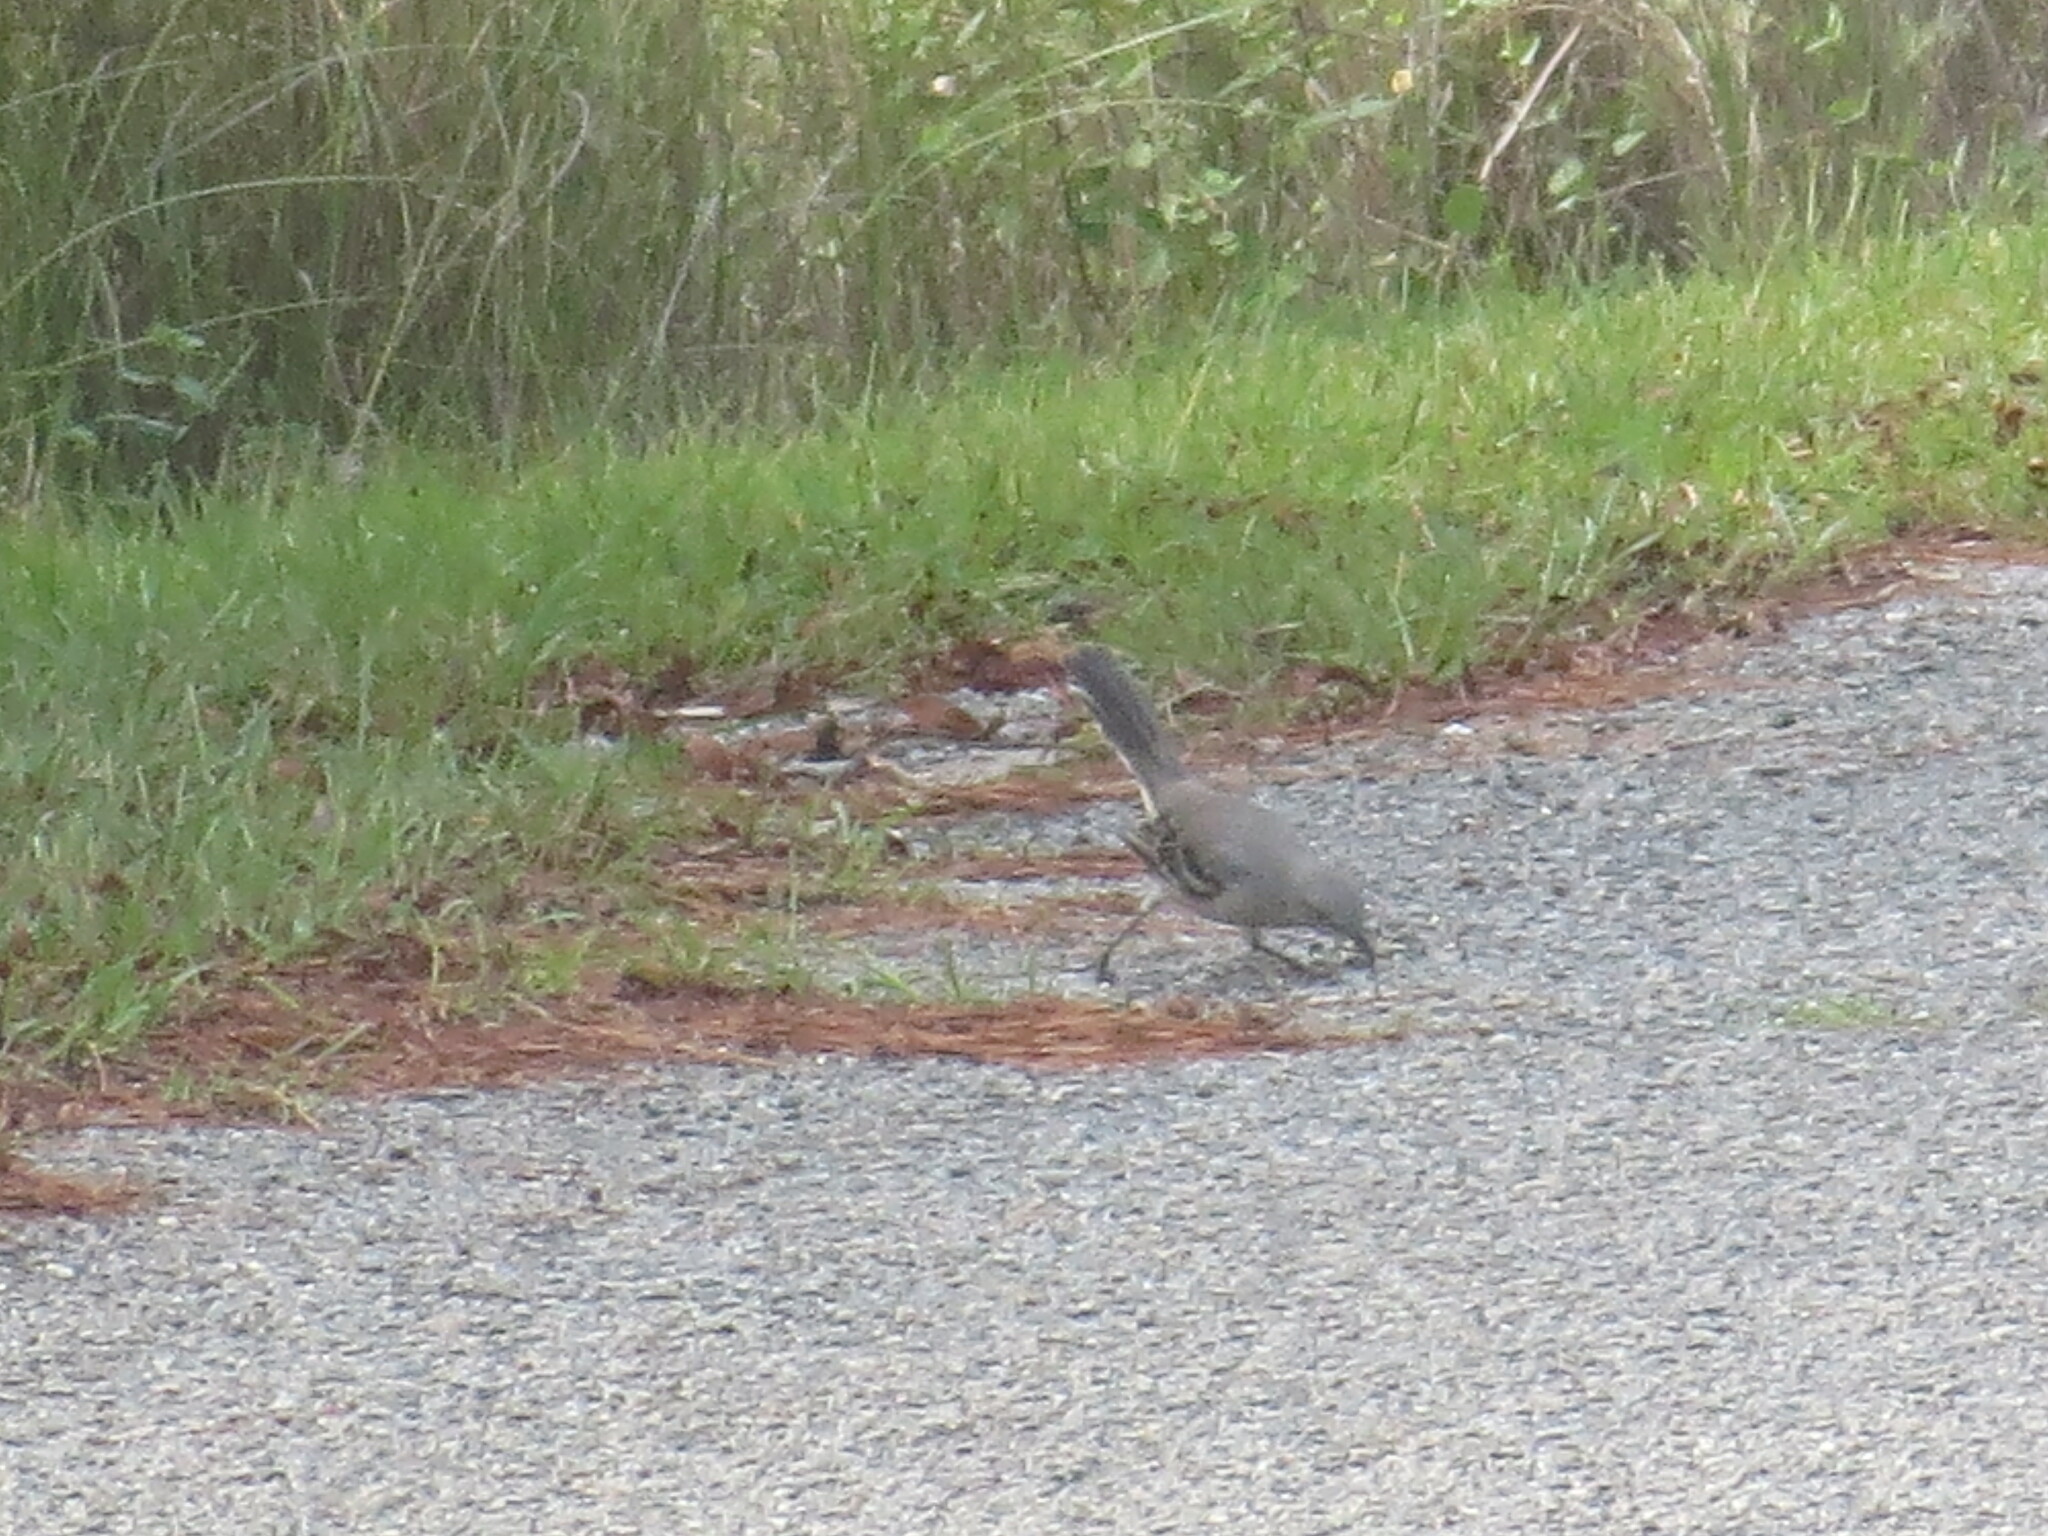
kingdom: Animalia
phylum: Chordata
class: Aves
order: Passeriformes
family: Mimidae
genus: Mimus
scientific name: Mimus polyglottos
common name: Northern mockingbird
